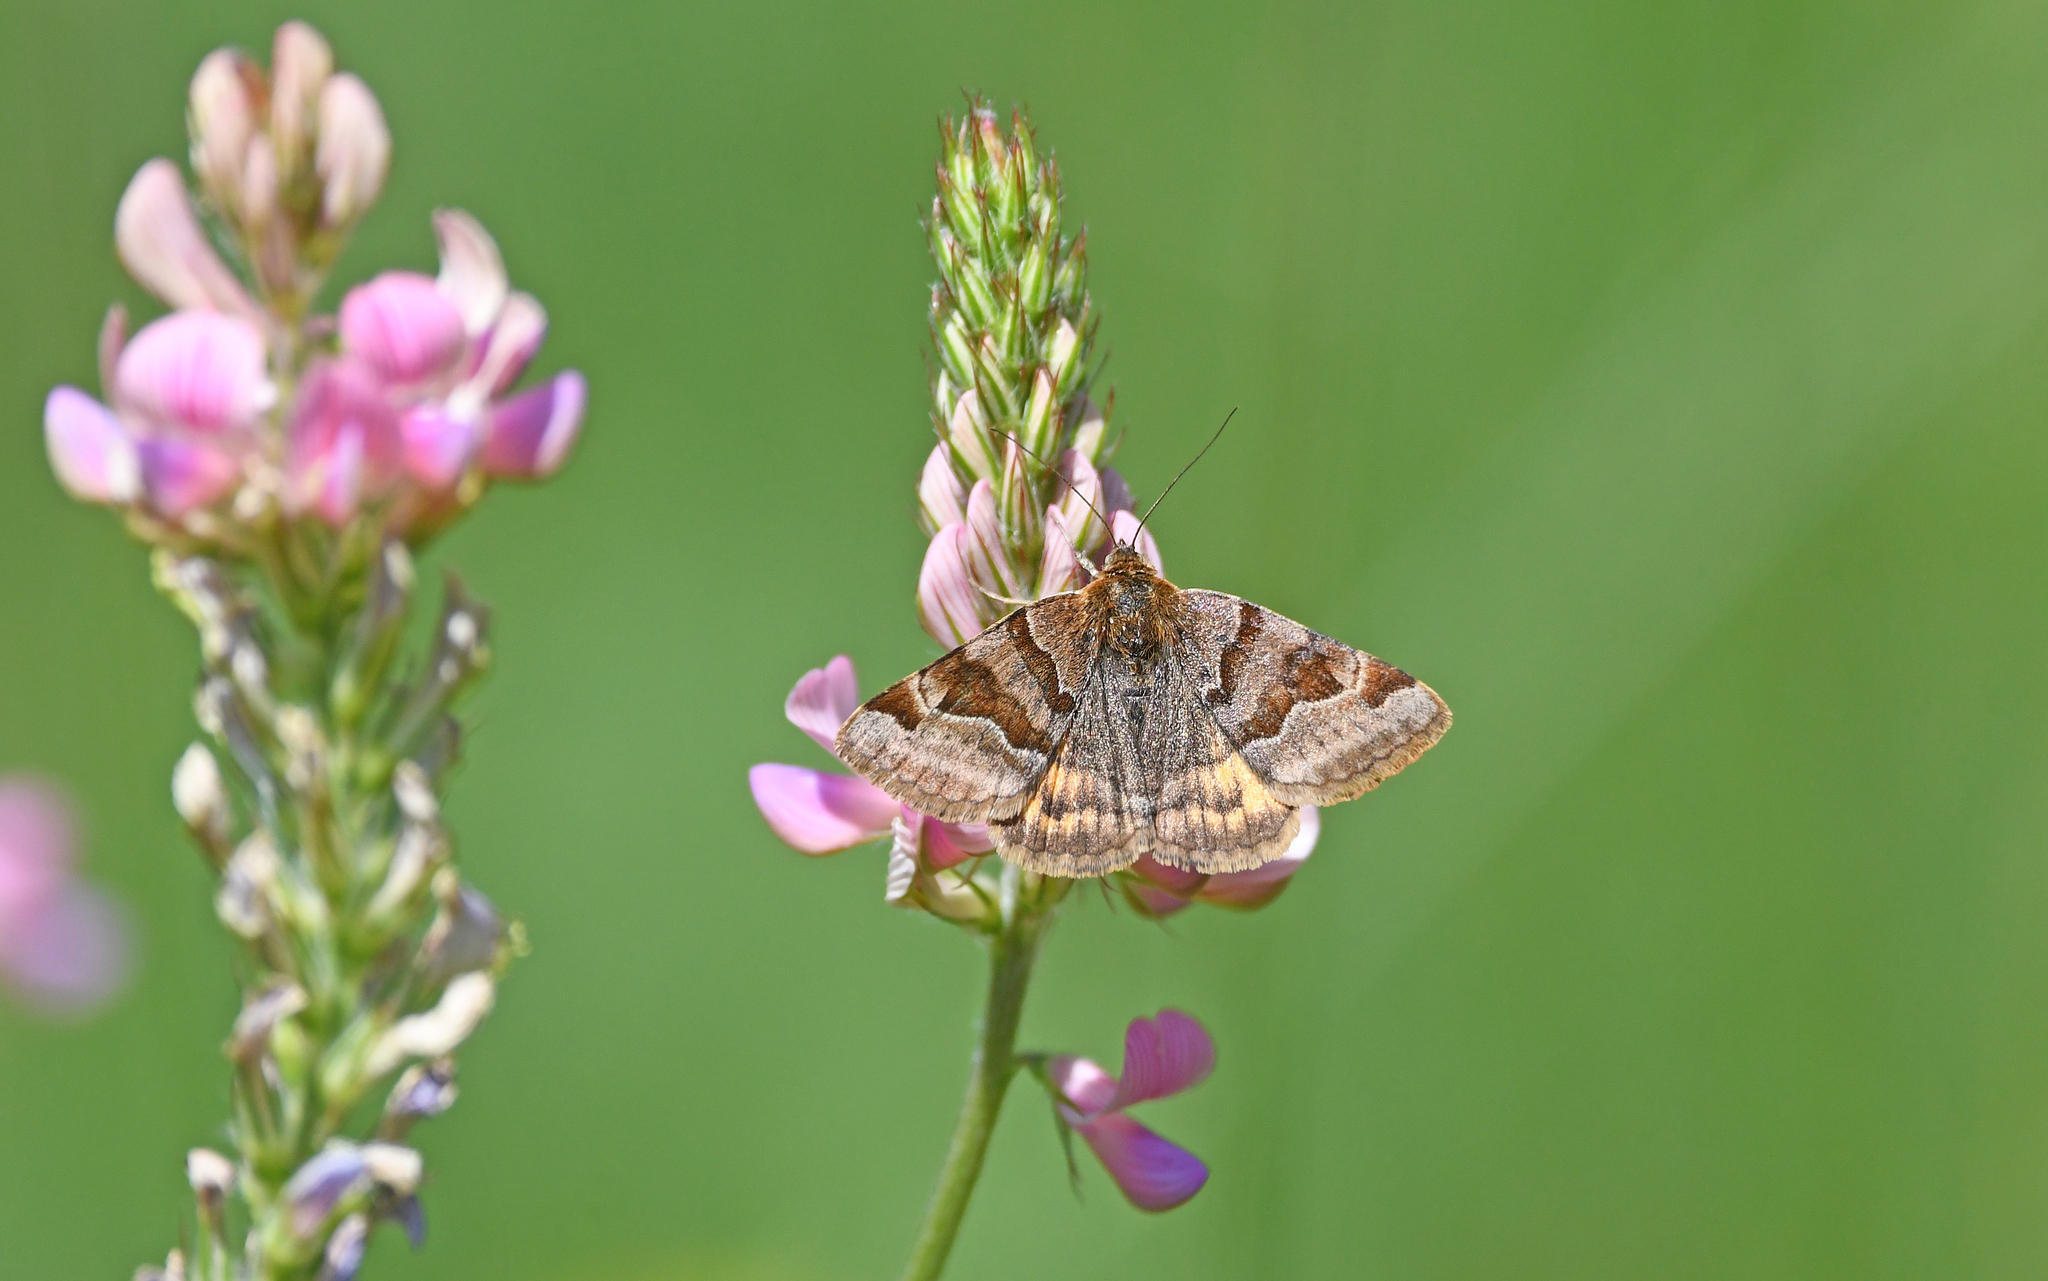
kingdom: Animalia
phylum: Arthropoda
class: Insecta
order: Lepidoptera
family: Erebidae
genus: Euclidia
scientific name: Euclidia glyphica
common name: Burnet companion
